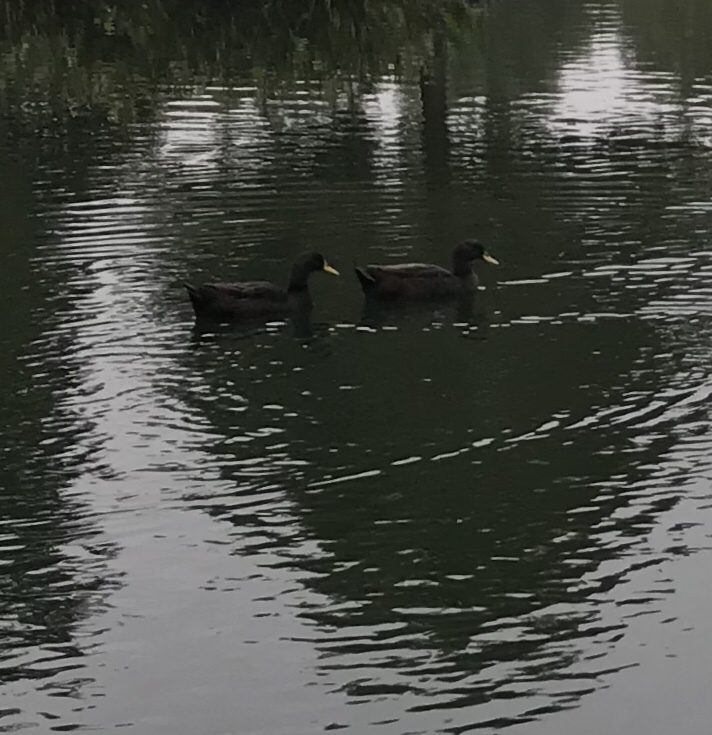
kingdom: Animalia
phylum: Chordata
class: Aves
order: Anseriformes
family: Anatidae
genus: Anas
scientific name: Anas platyrhynchos
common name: Mallard
